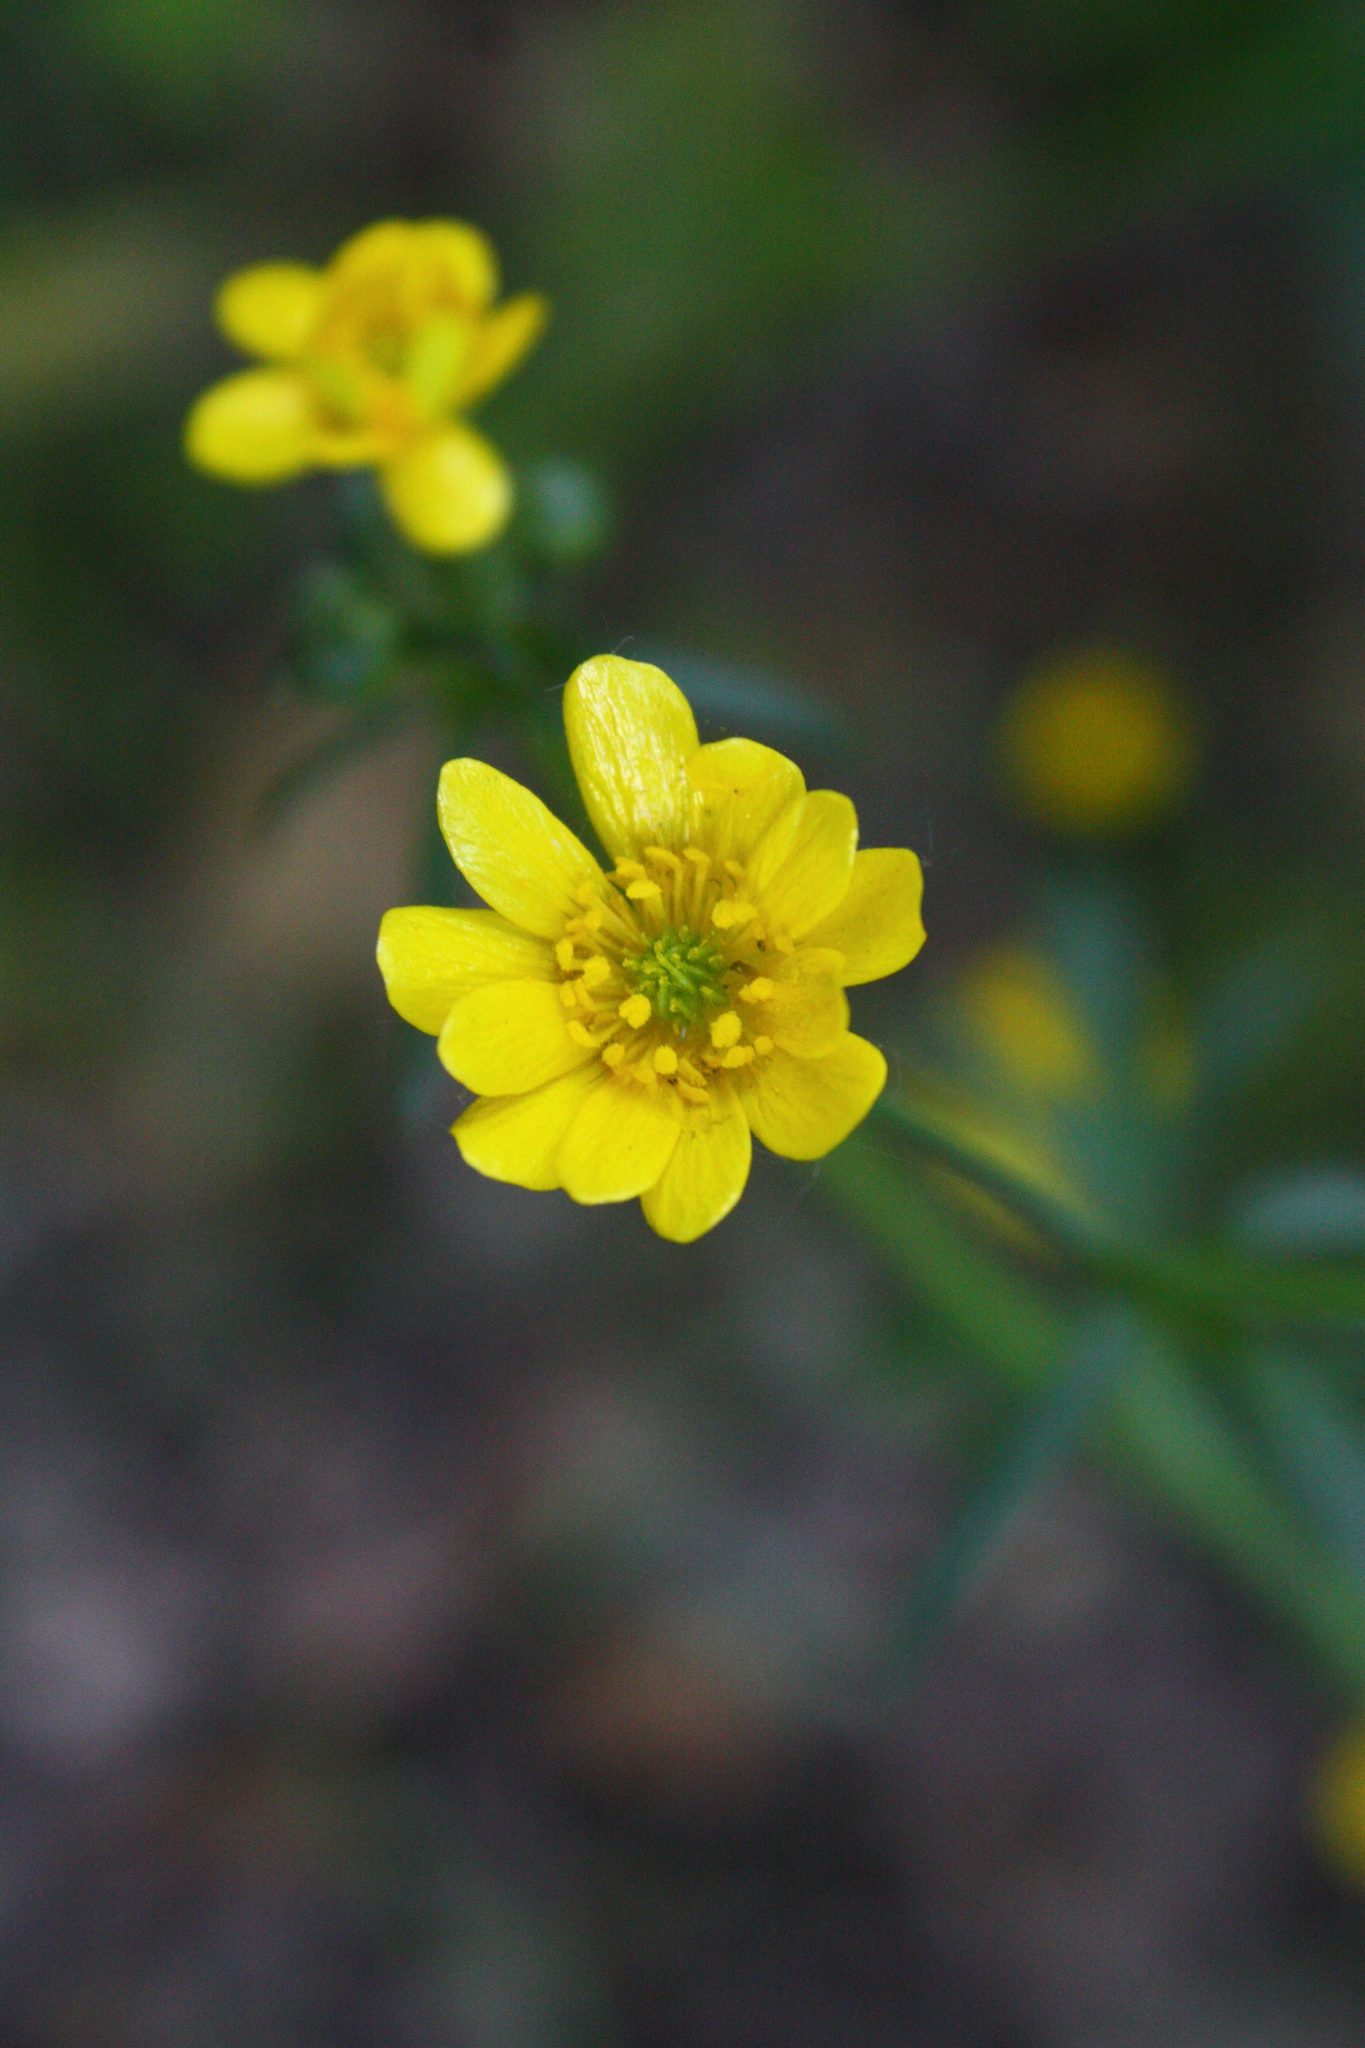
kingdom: Plantae
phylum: Tracheophyta
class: Magnoliopsida
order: Ranunculales
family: Ranunculaceae
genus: Ranunculus
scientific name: Ranunculus californicus
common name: California buttercup
